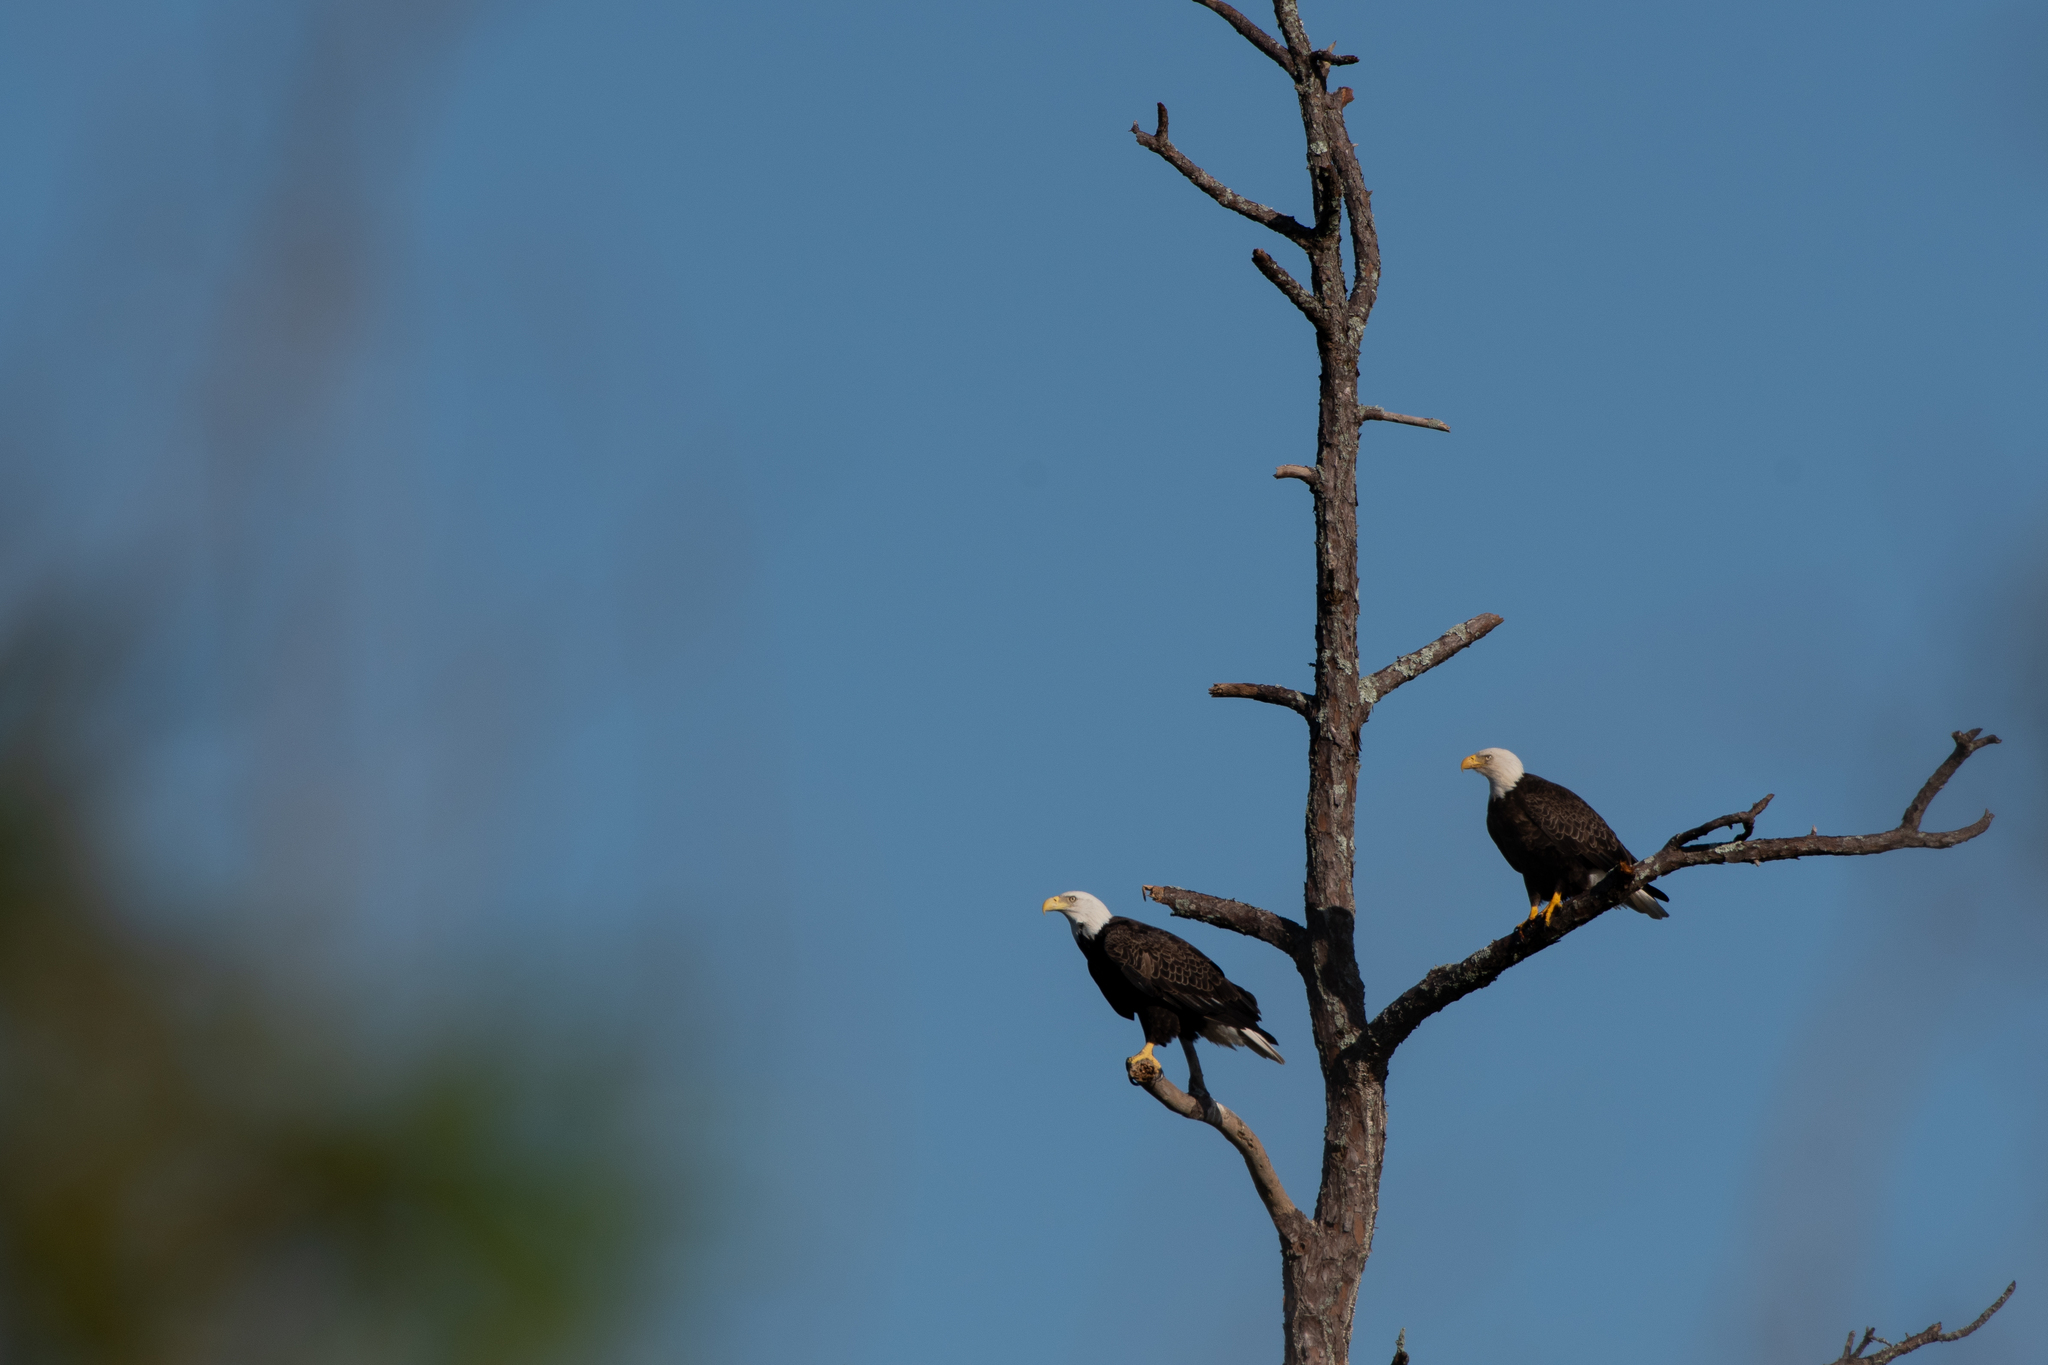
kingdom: Animalia
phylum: Chordata
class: Aves
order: Accipitriformes
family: Accipitridae
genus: Haliaeetus
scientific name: Haliaeetus leucocephalus
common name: Bald eagle
